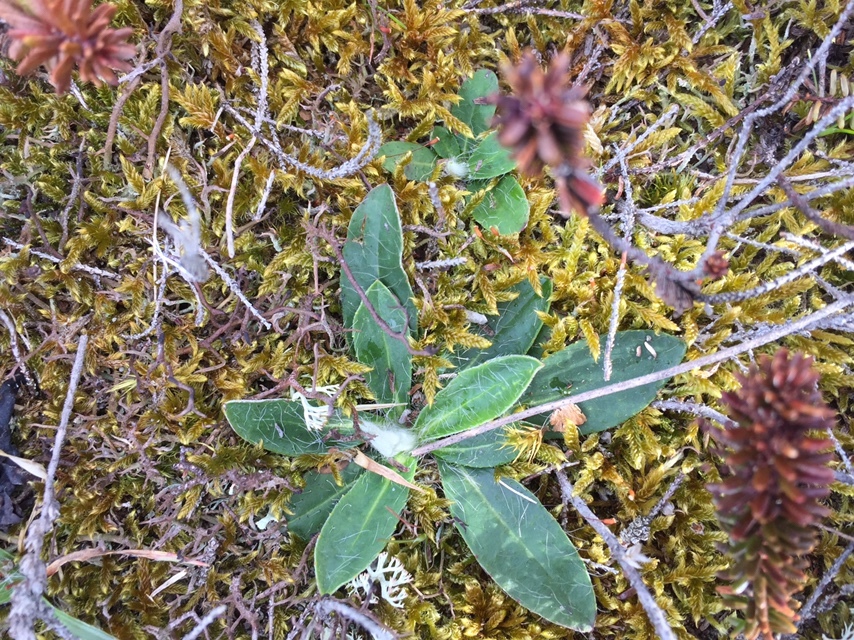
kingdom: Plantae
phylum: Tracheophyta
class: Magnoliopsida
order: Asterales
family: Asteraceae
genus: Pilosella
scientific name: Pilosella officinarum
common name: Mouse-ear hawkweed
